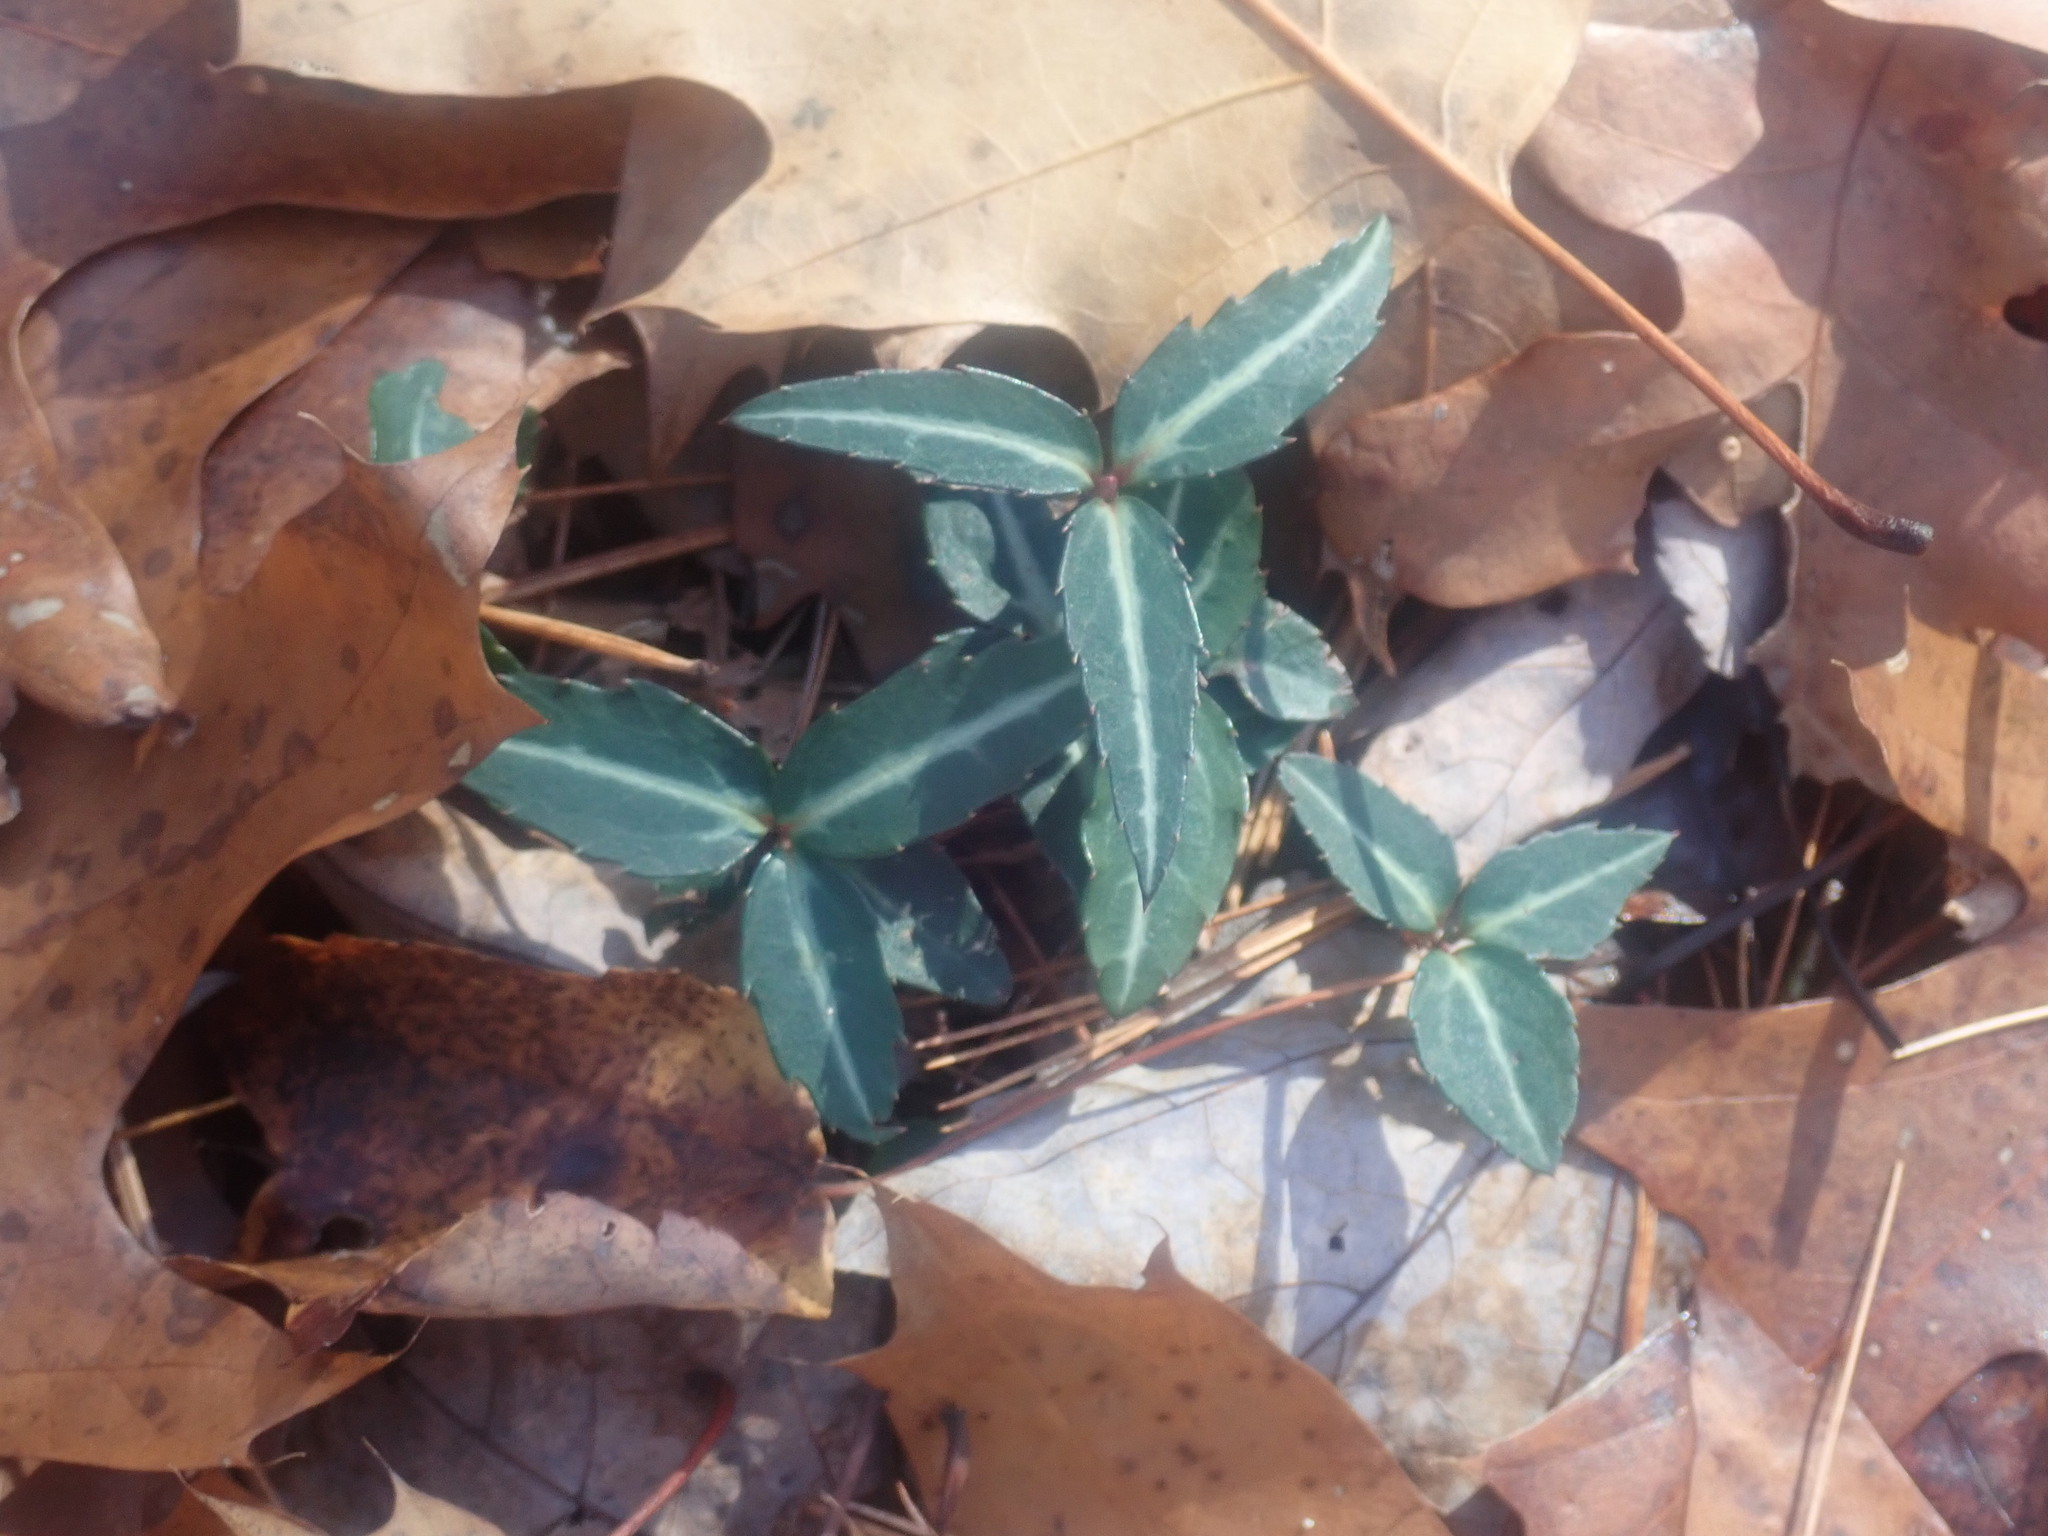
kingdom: Plantae
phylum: Tracheophyta
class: Magnoliopsida
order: Ericales
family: Ericaceae
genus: Chimaphila
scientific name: Chimaphila maculata
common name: Spotted pipsissewa
